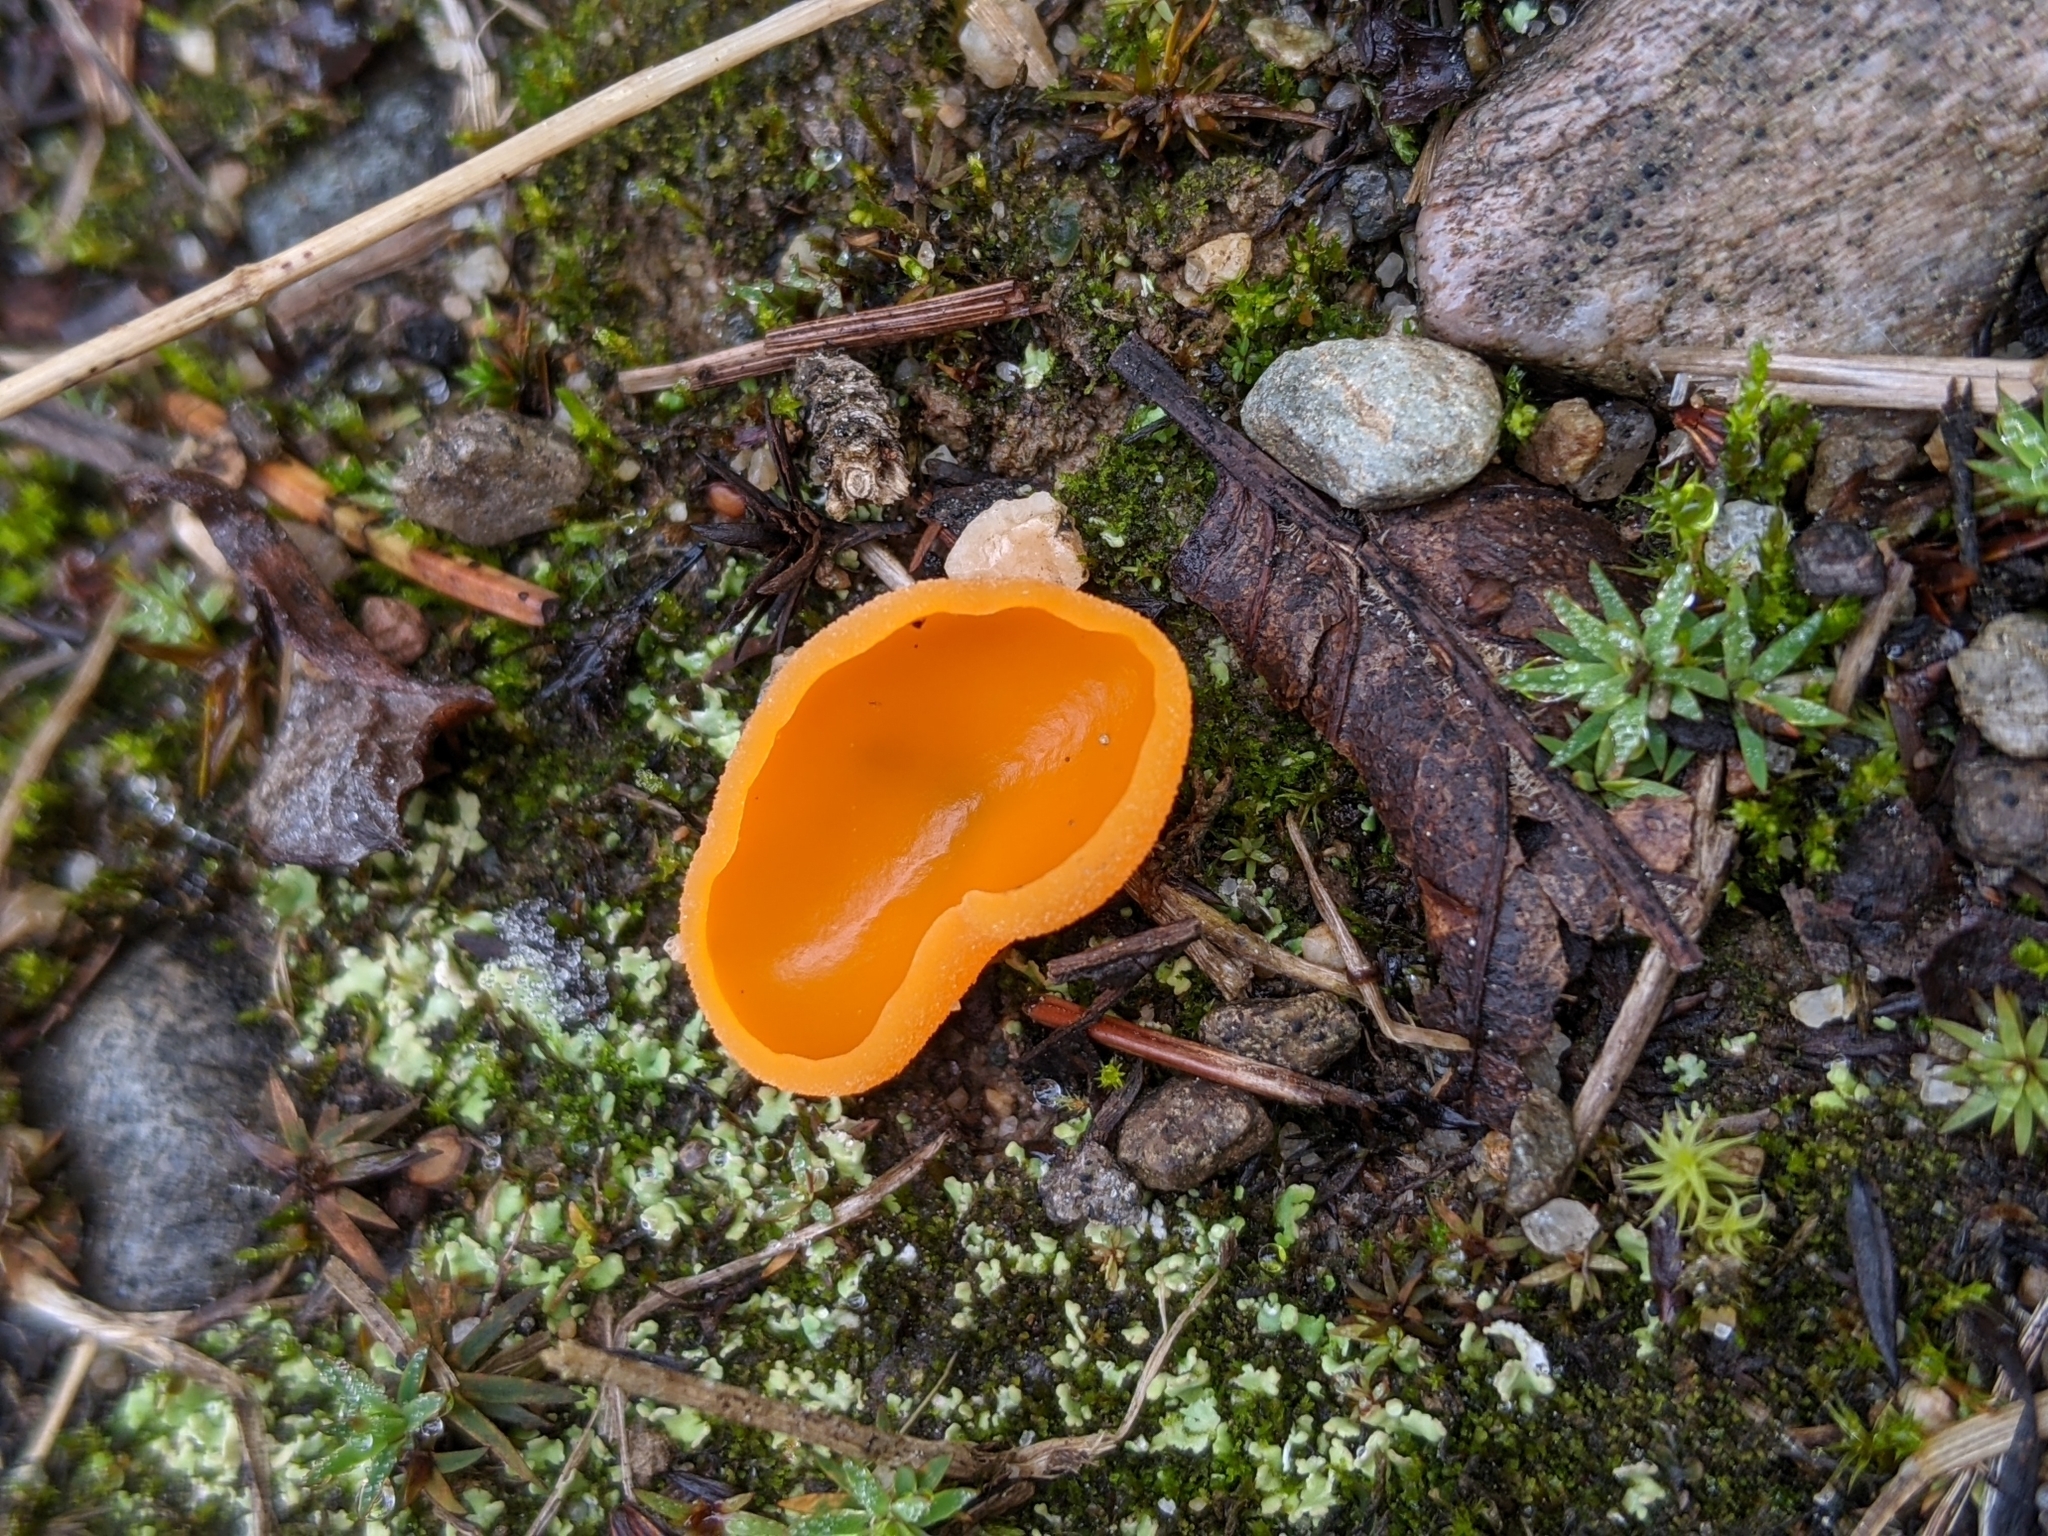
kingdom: Fungi
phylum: Ascomycota
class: Pezizomycetes
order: Pezizales
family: Pyronemataceae
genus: Aleuria
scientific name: Aleuria aurantia
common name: Orange peel fungus
